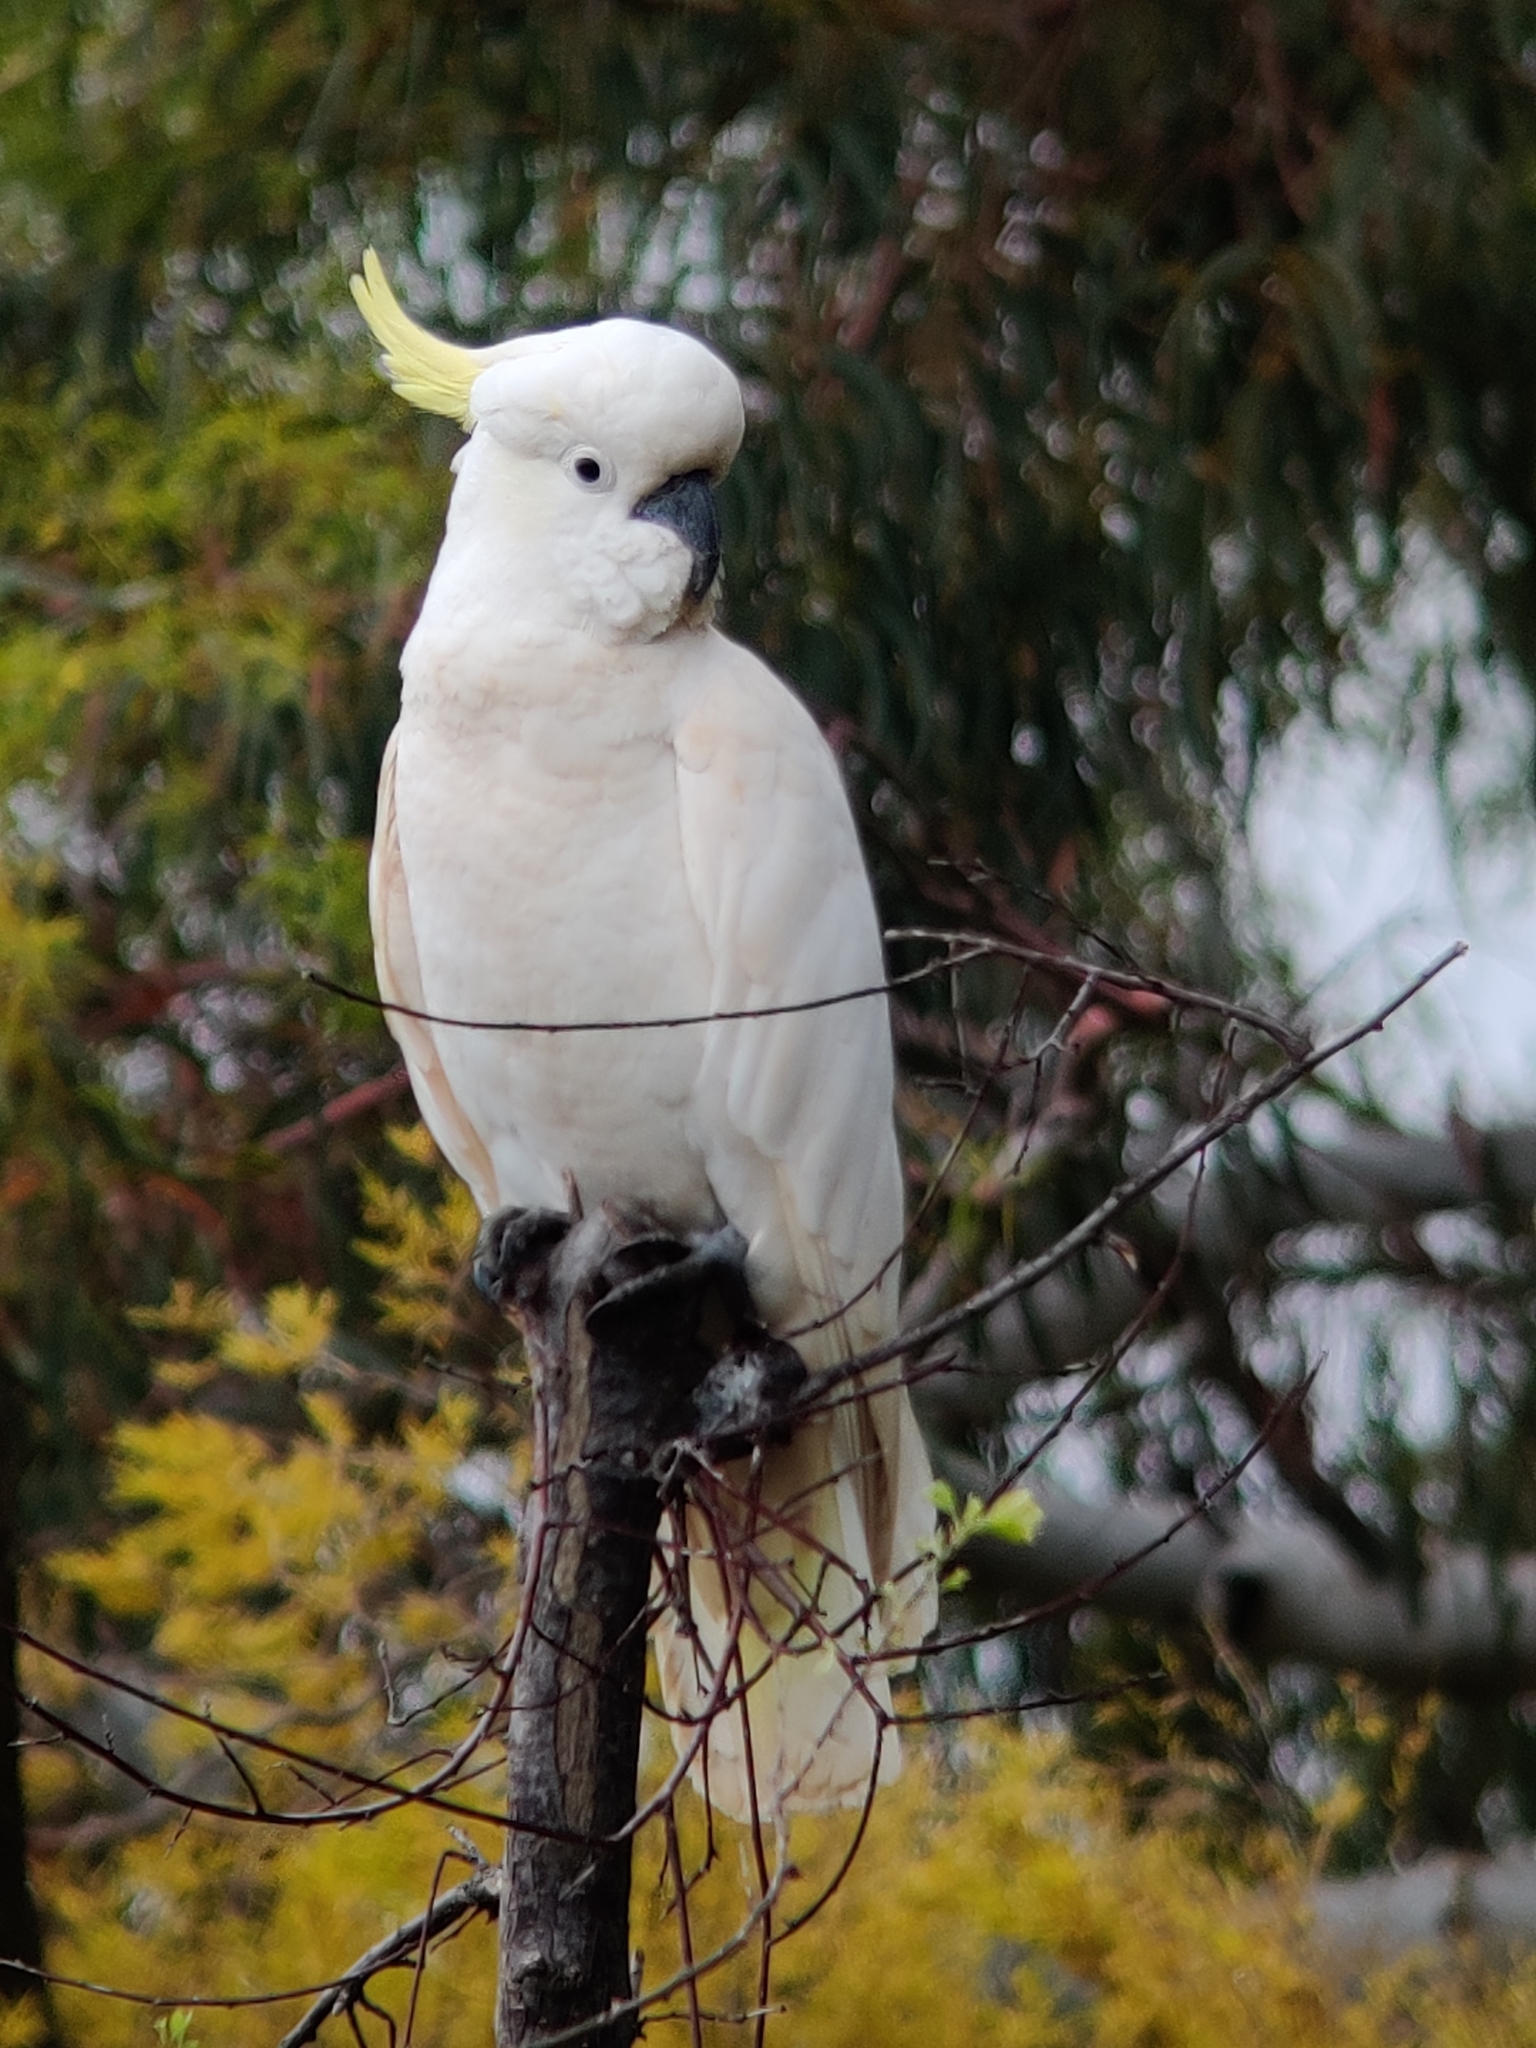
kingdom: Animalia
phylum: Chordata
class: Aves
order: Psittaciformes
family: Psittacidae
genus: Cacatua
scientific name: Cacatua galerita
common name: Sulphur-crested cockatoo
